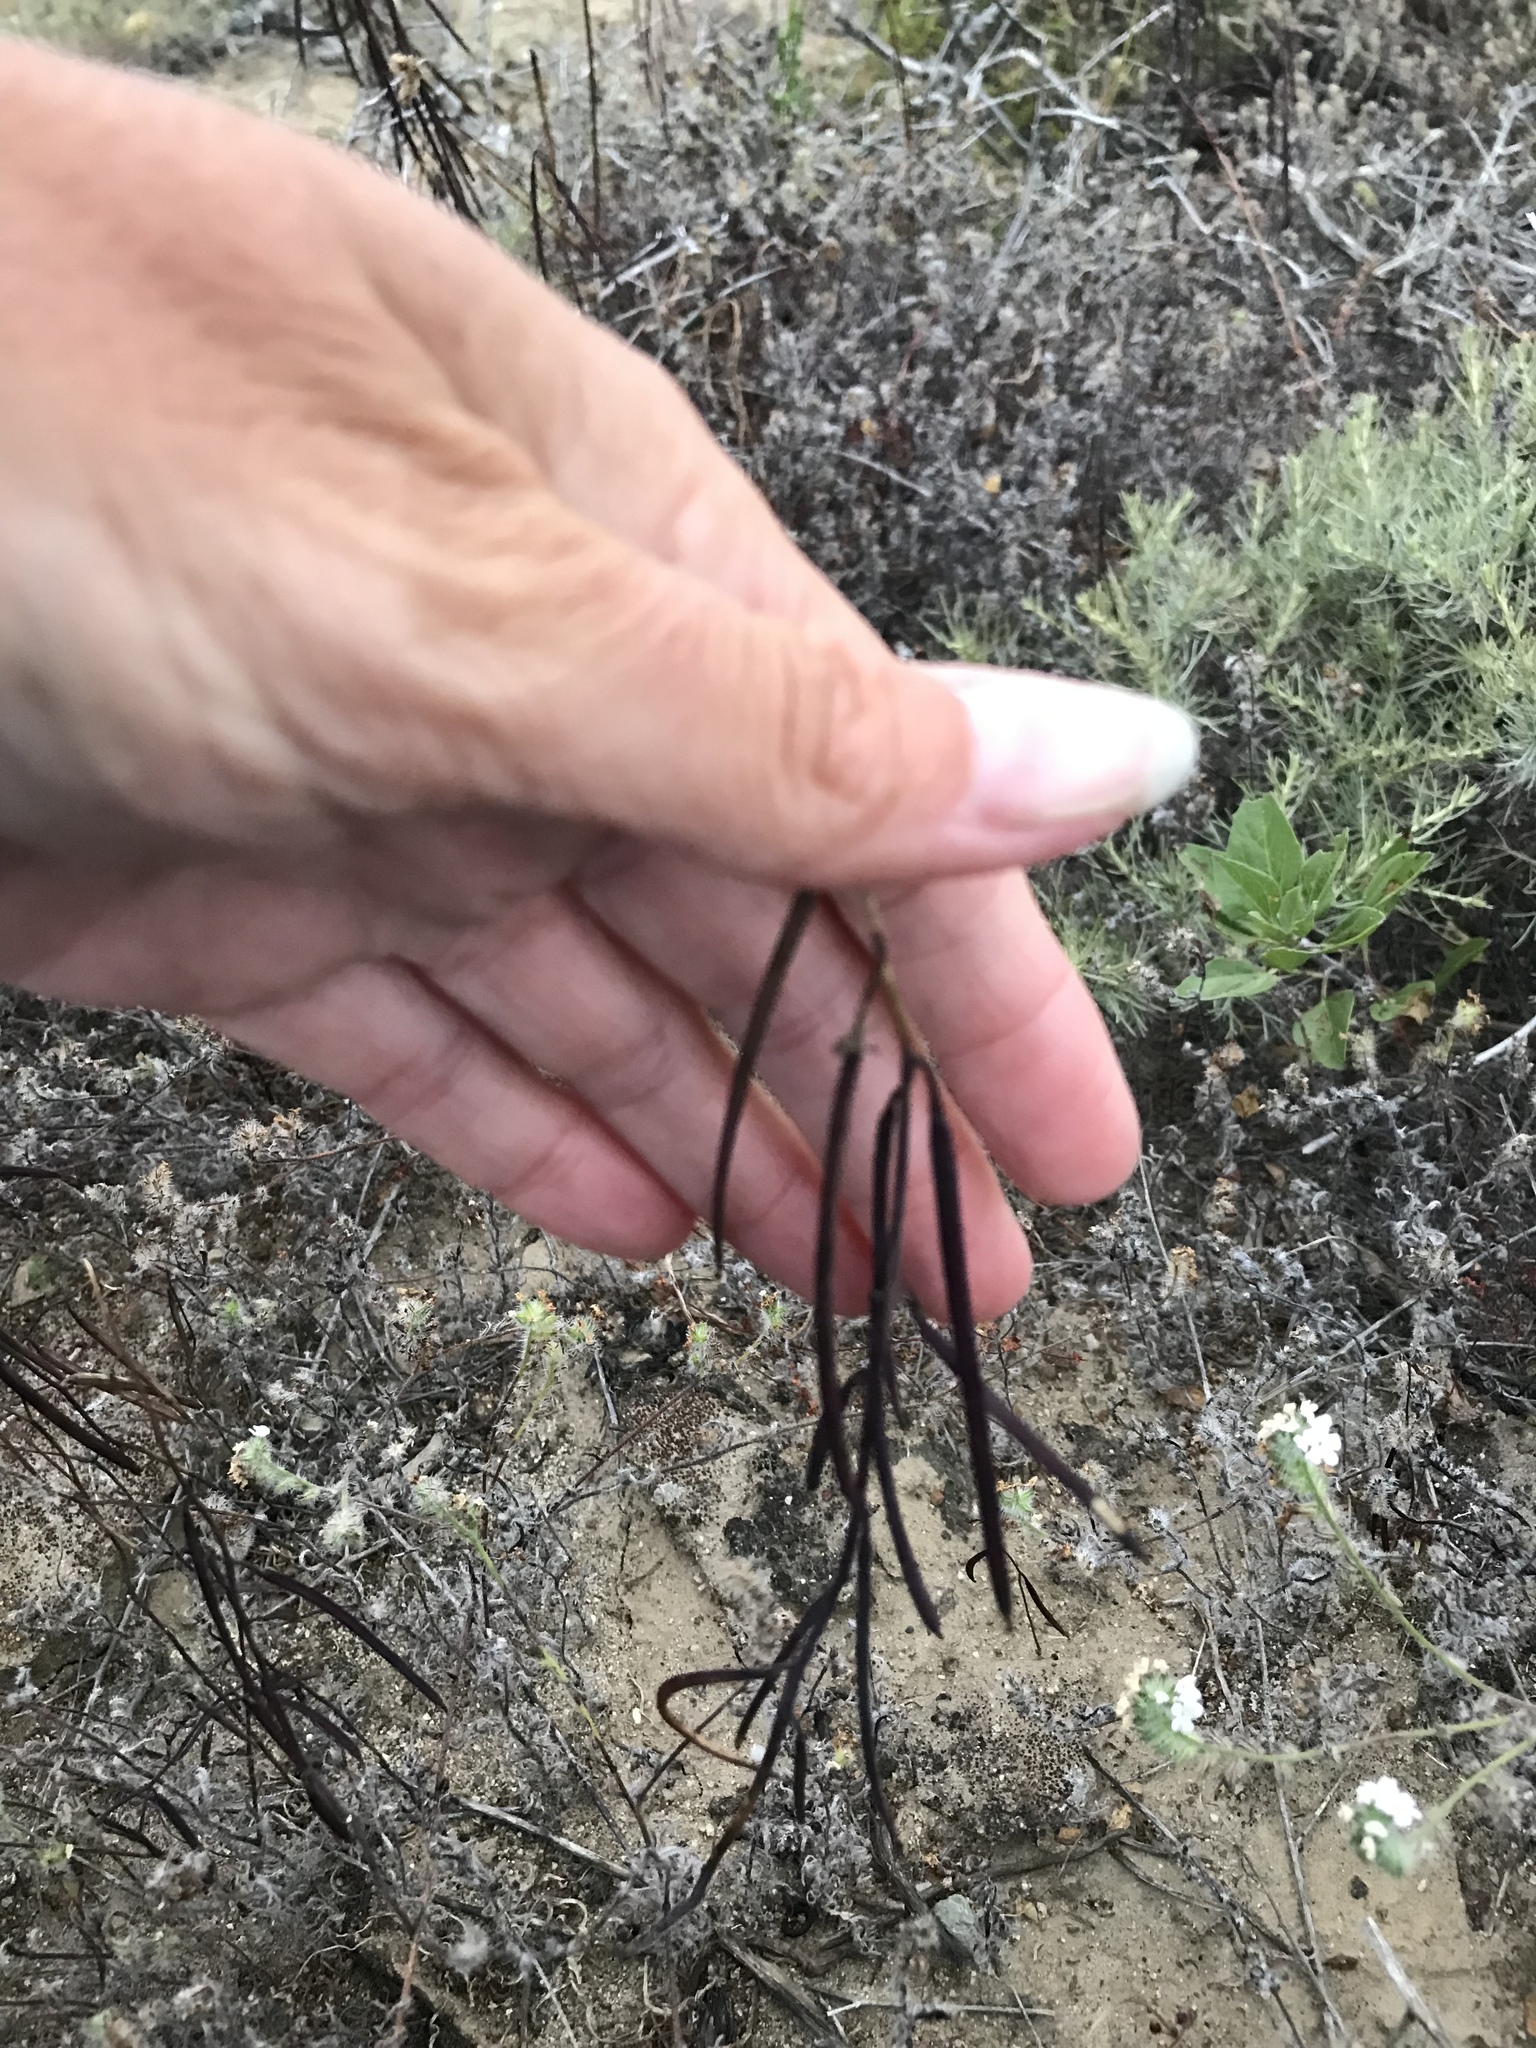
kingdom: Plantae
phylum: Tracheophyta
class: Magnoliopsida
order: Brassicales
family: Brassicaceae
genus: Streptanthus
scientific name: Streptanthus heterophyllus
